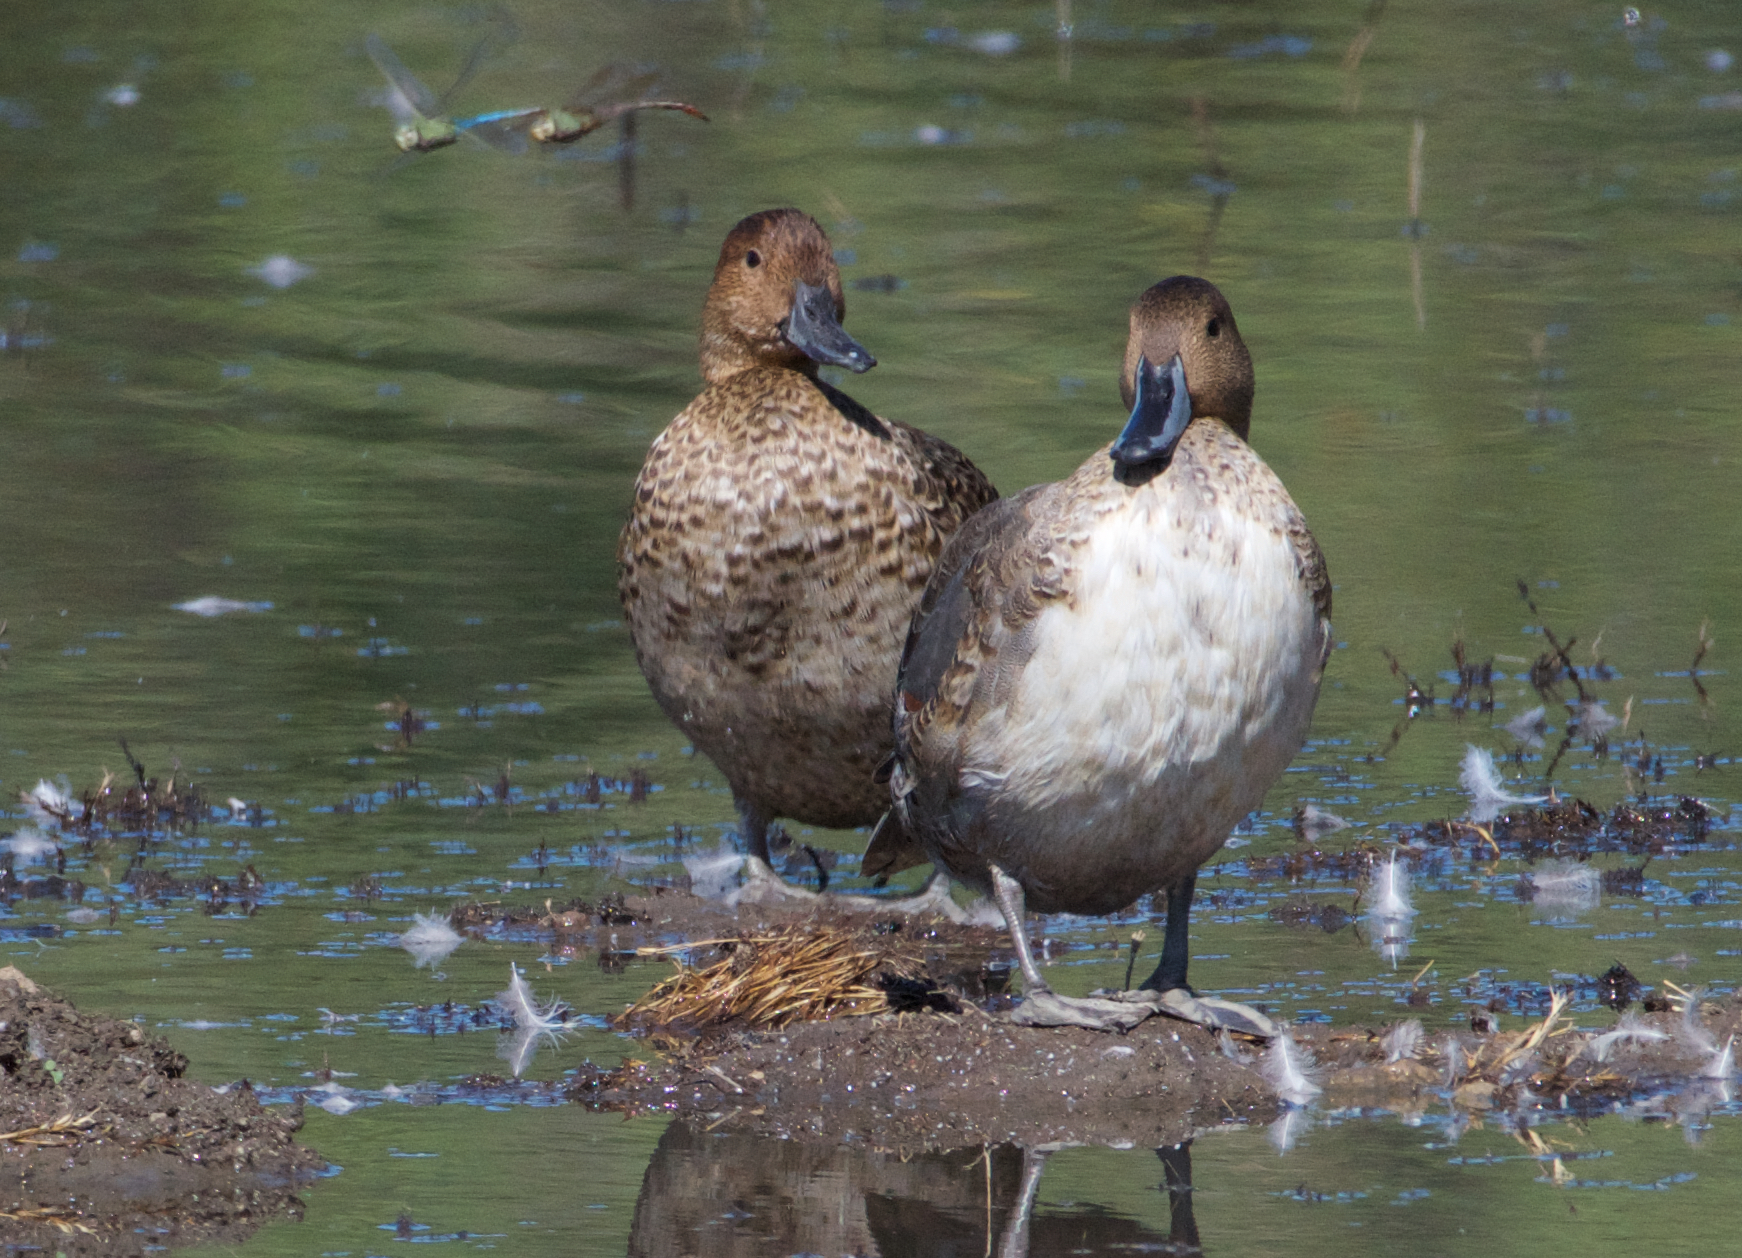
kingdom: Animalia
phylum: Chordata
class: Aves
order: Anseriformes
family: Anatidae
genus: Anas
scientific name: Anas acuta
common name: Northern pintail
